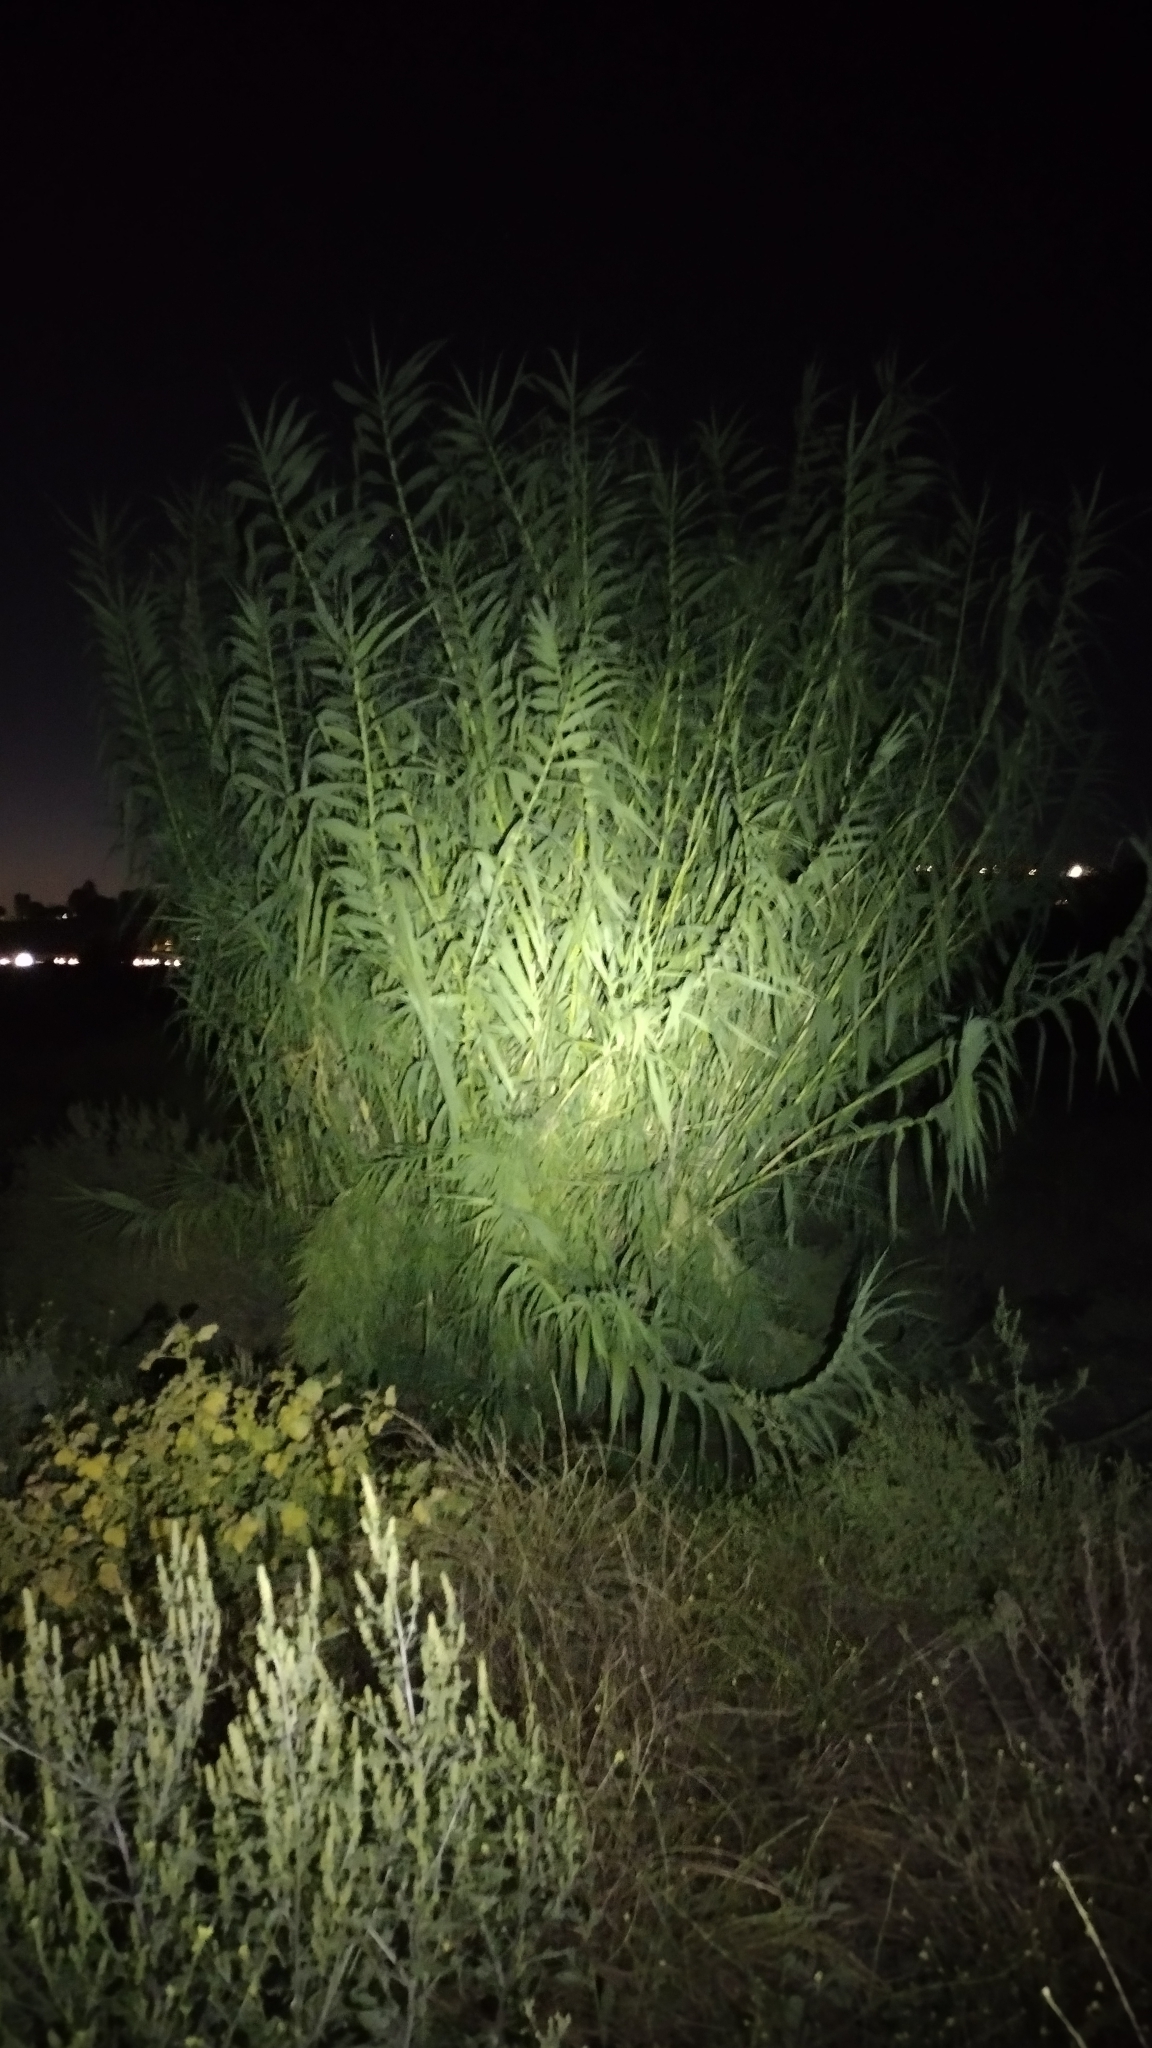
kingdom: Plantae
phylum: Tracheophyta
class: Liliopsida
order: Poales
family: Poaceae
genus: Arundo
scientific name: Arundo donax
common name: Giant reed
